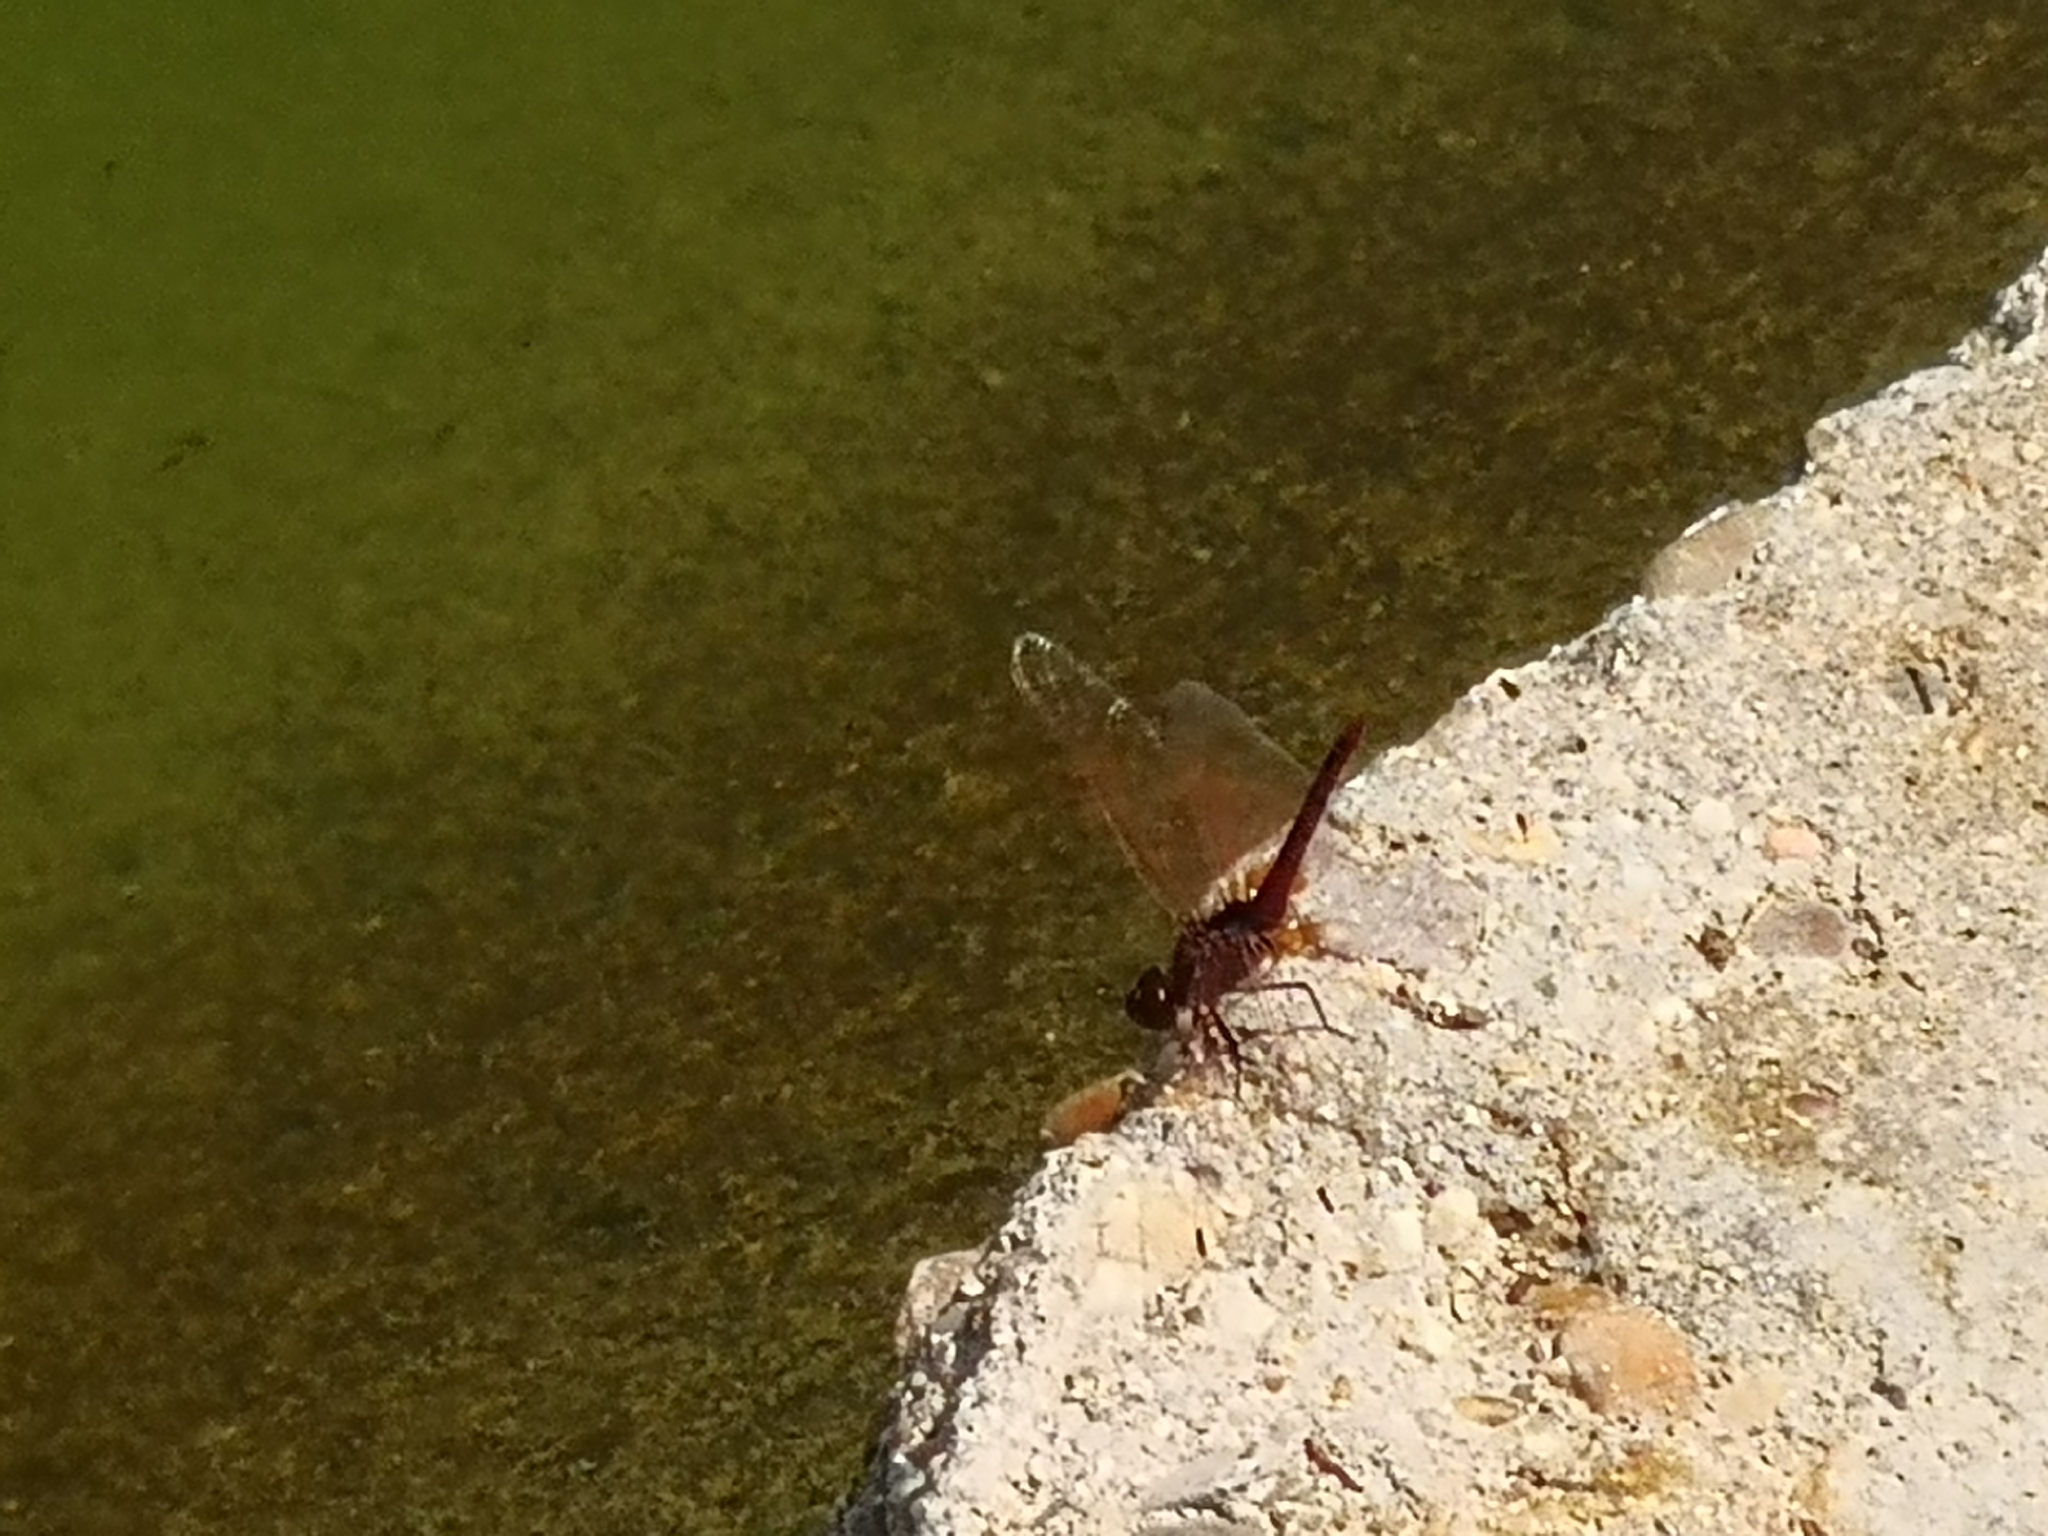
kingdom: Animalia
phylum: Arthropoda
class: Insecta
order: Odonata
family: Libellulidae
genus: Crocothemis
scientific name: Crocothemis erythraea
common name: Scarlet dragonfly
